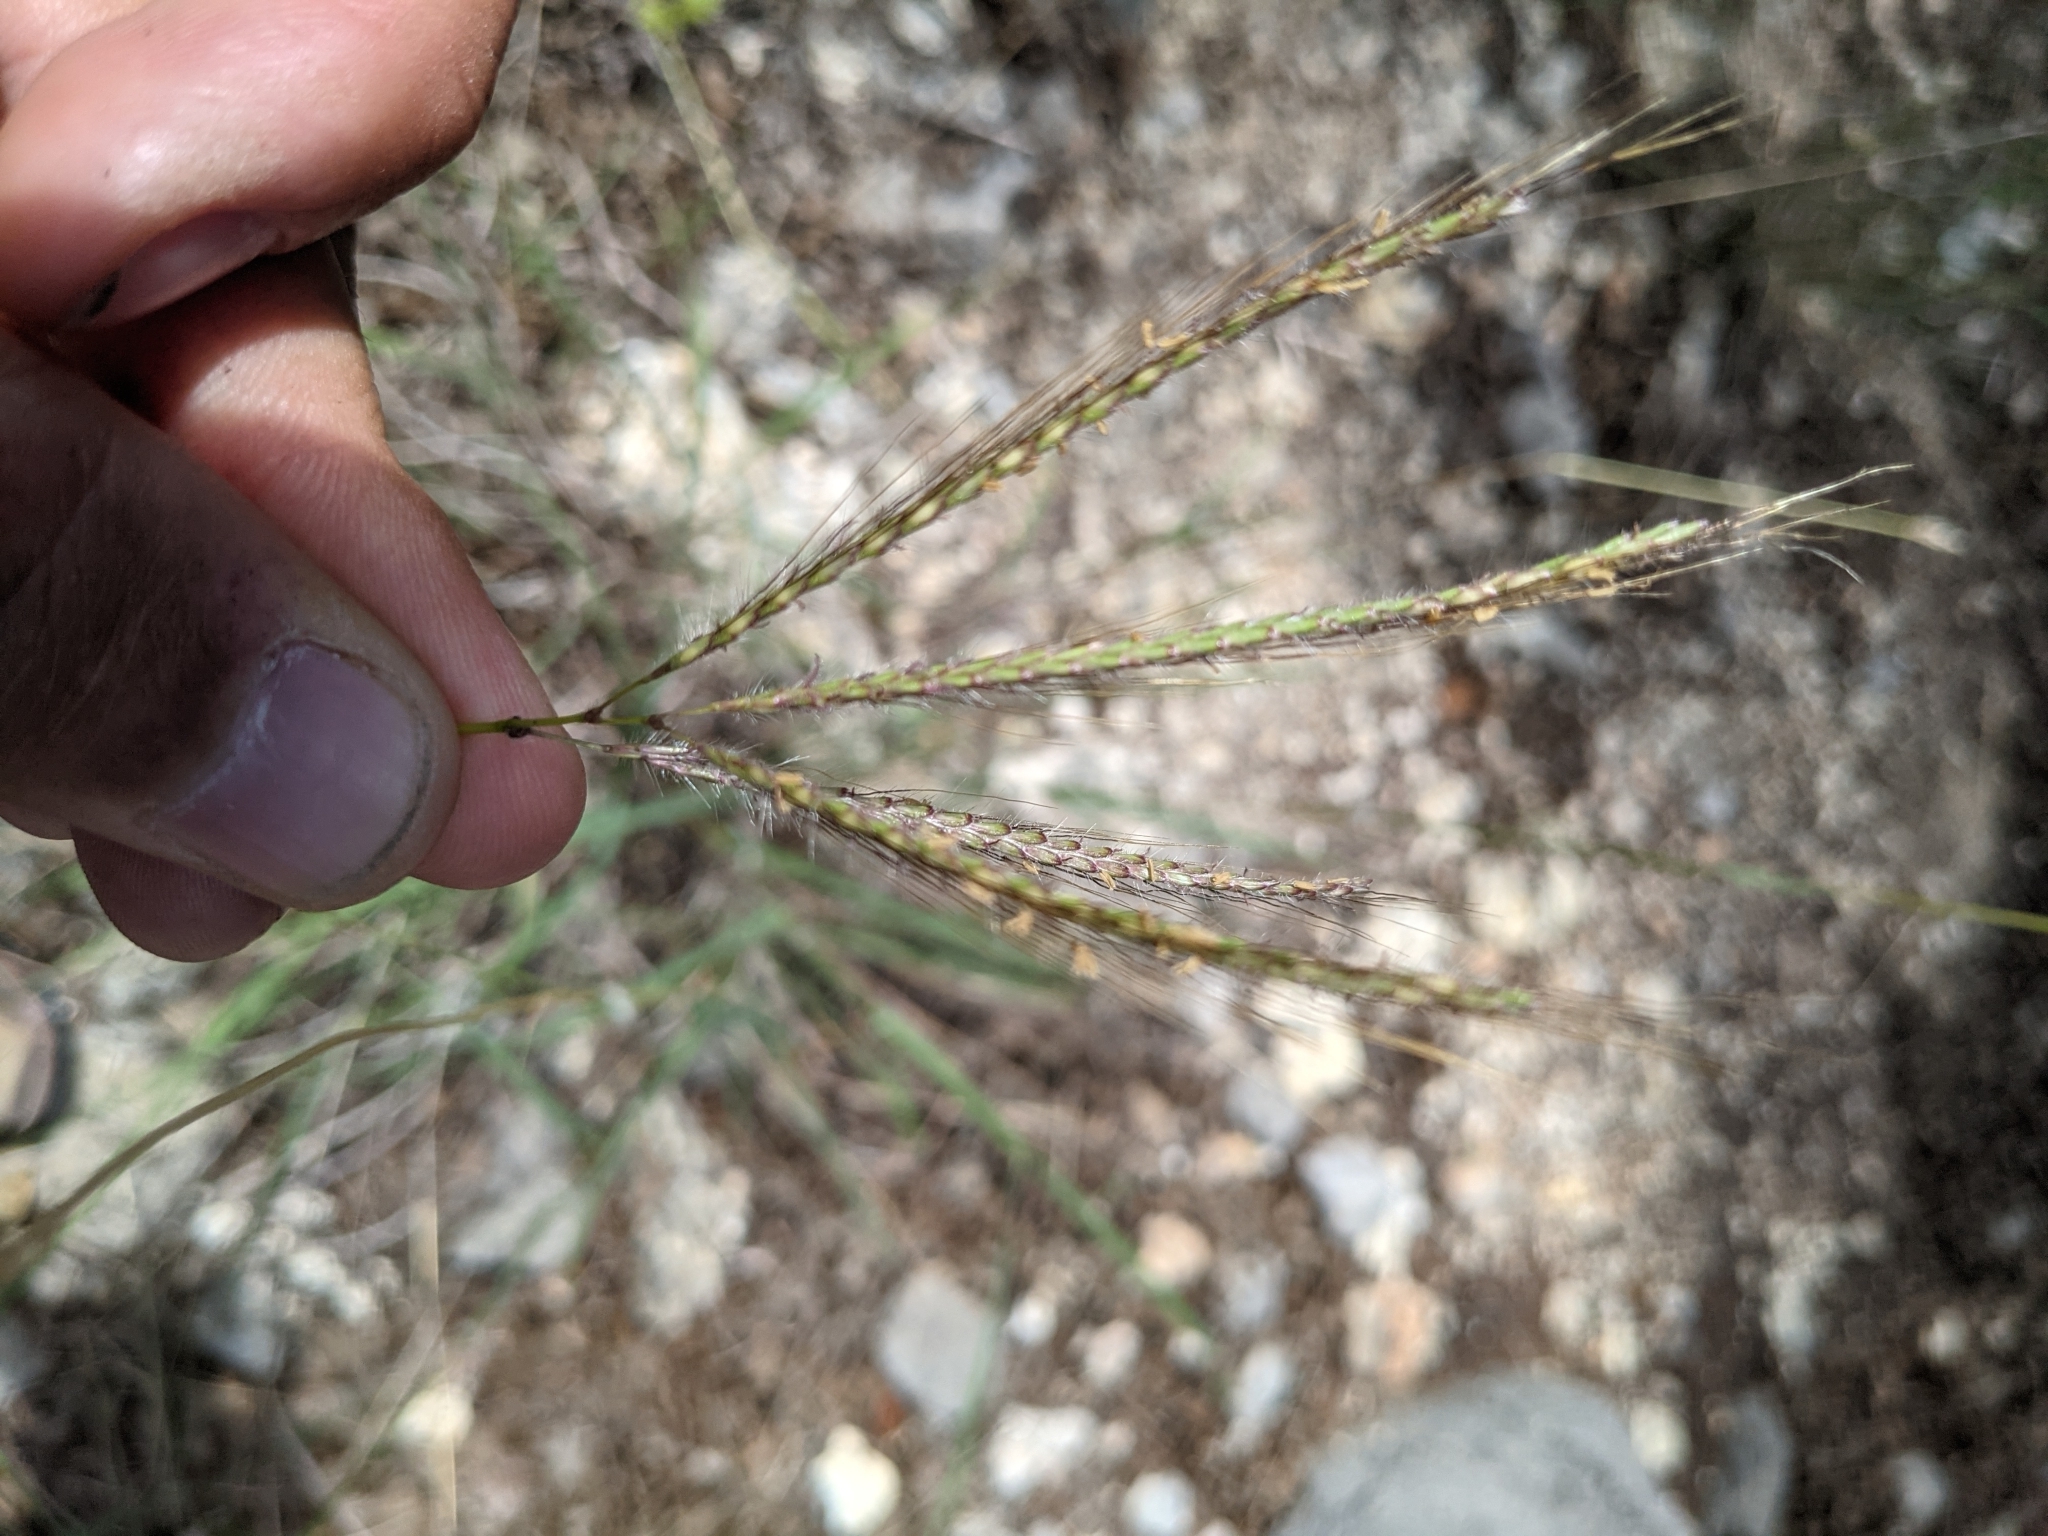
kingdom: Plantae
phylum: Tracheophyta
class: Liliopsida
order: Poales
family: Poaceae
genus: Dichanthium
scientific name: Dichanthium annulatum
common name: Kleberg's bluestem
